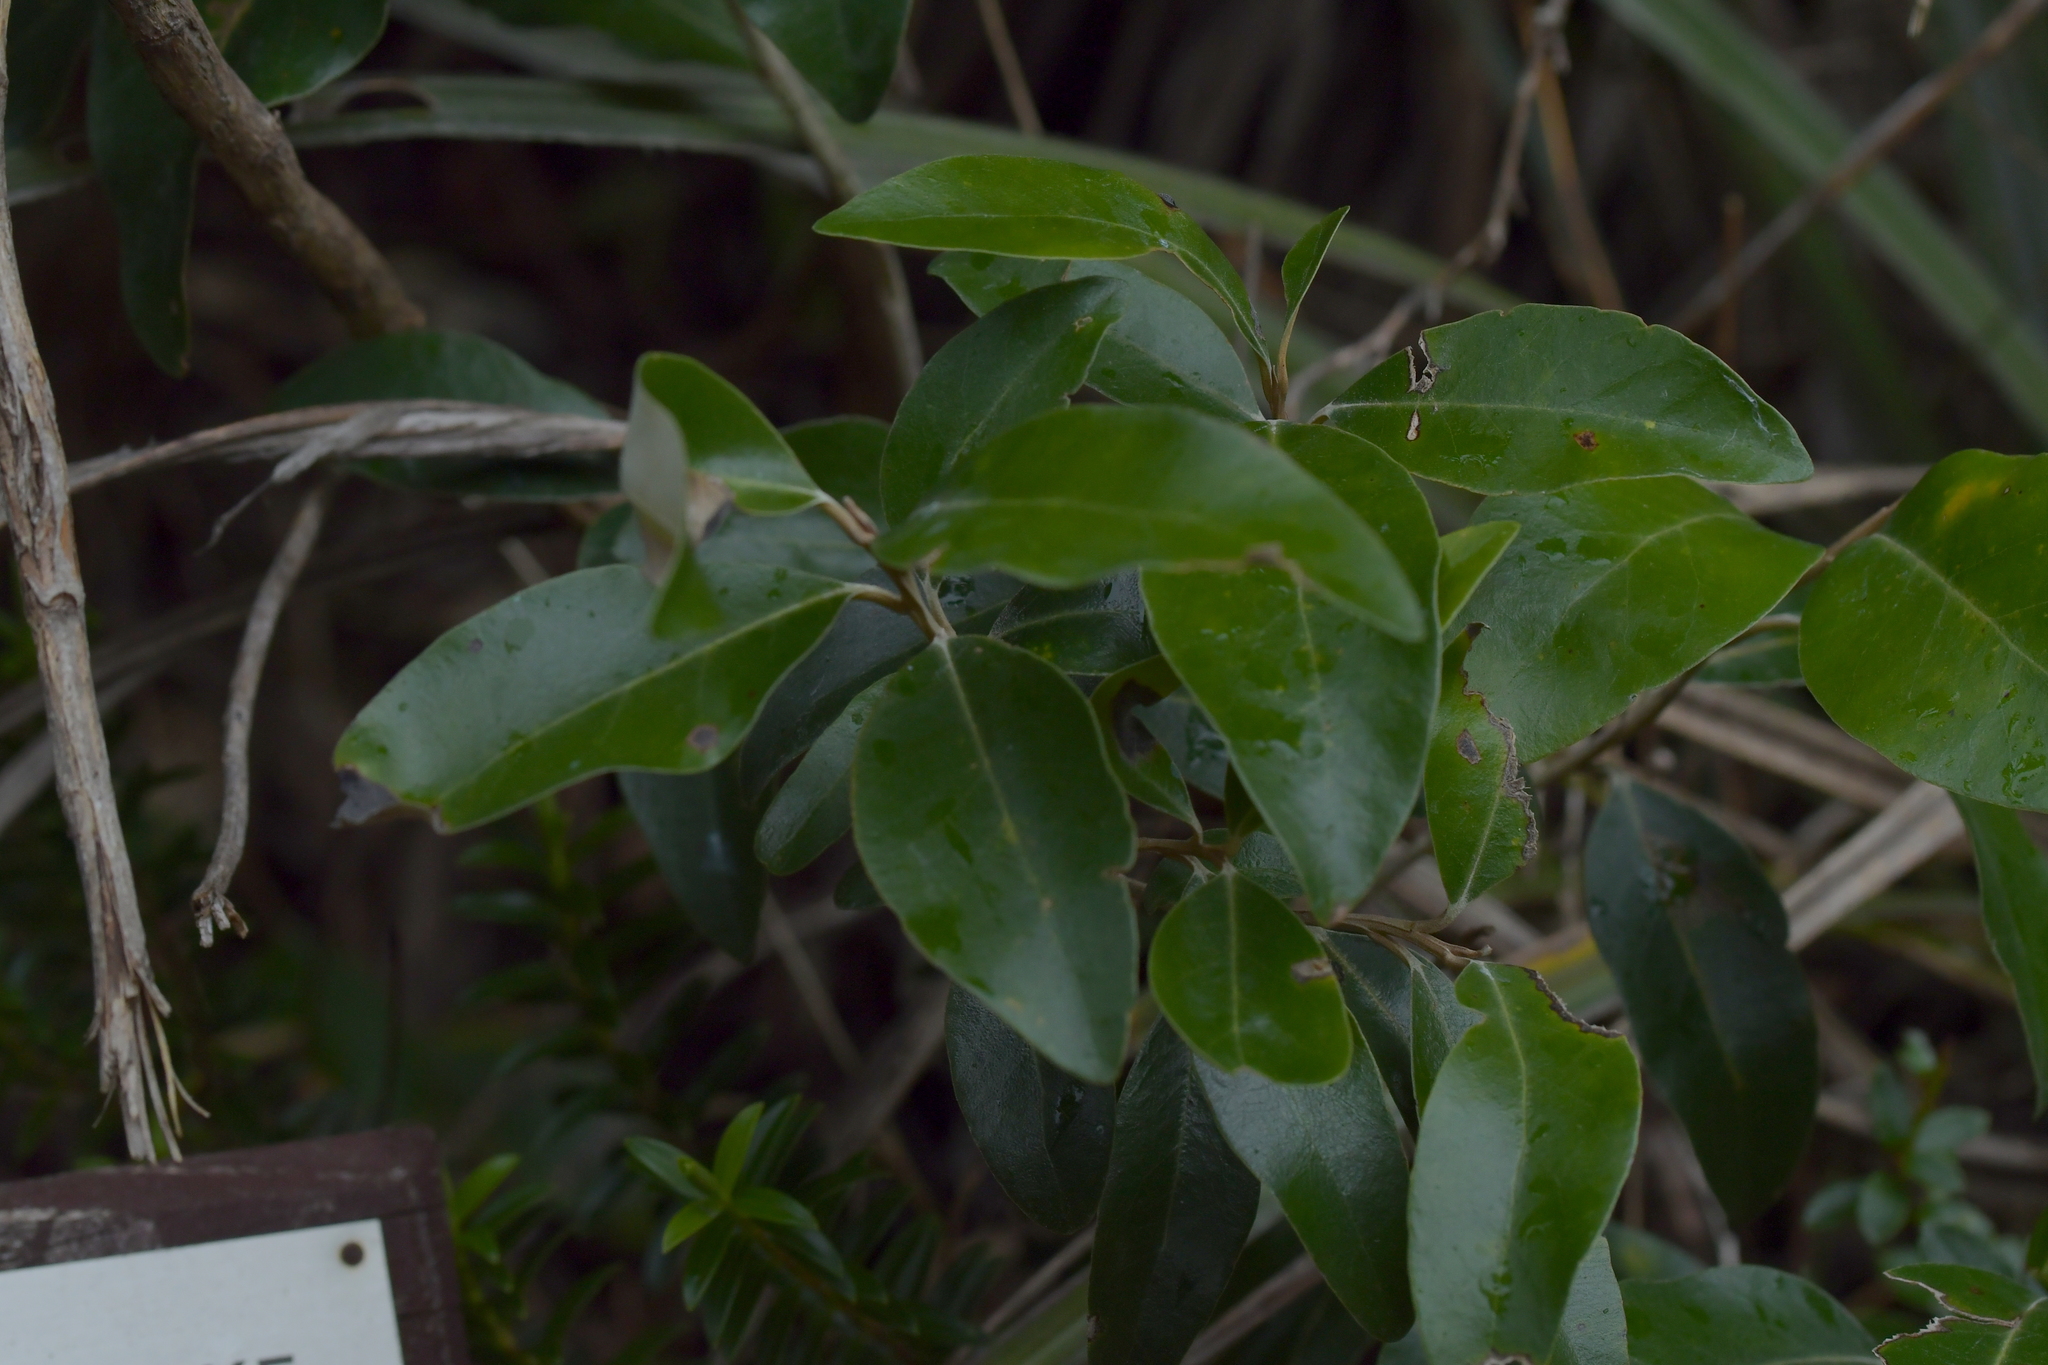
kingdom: Plantae
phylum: Tracheophyta
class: Magnoliopsida
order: Asterales
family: Asteraceae
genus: Olearia
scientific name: Olearia avicenniifolia
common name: Mangrove-leaf daisybush
